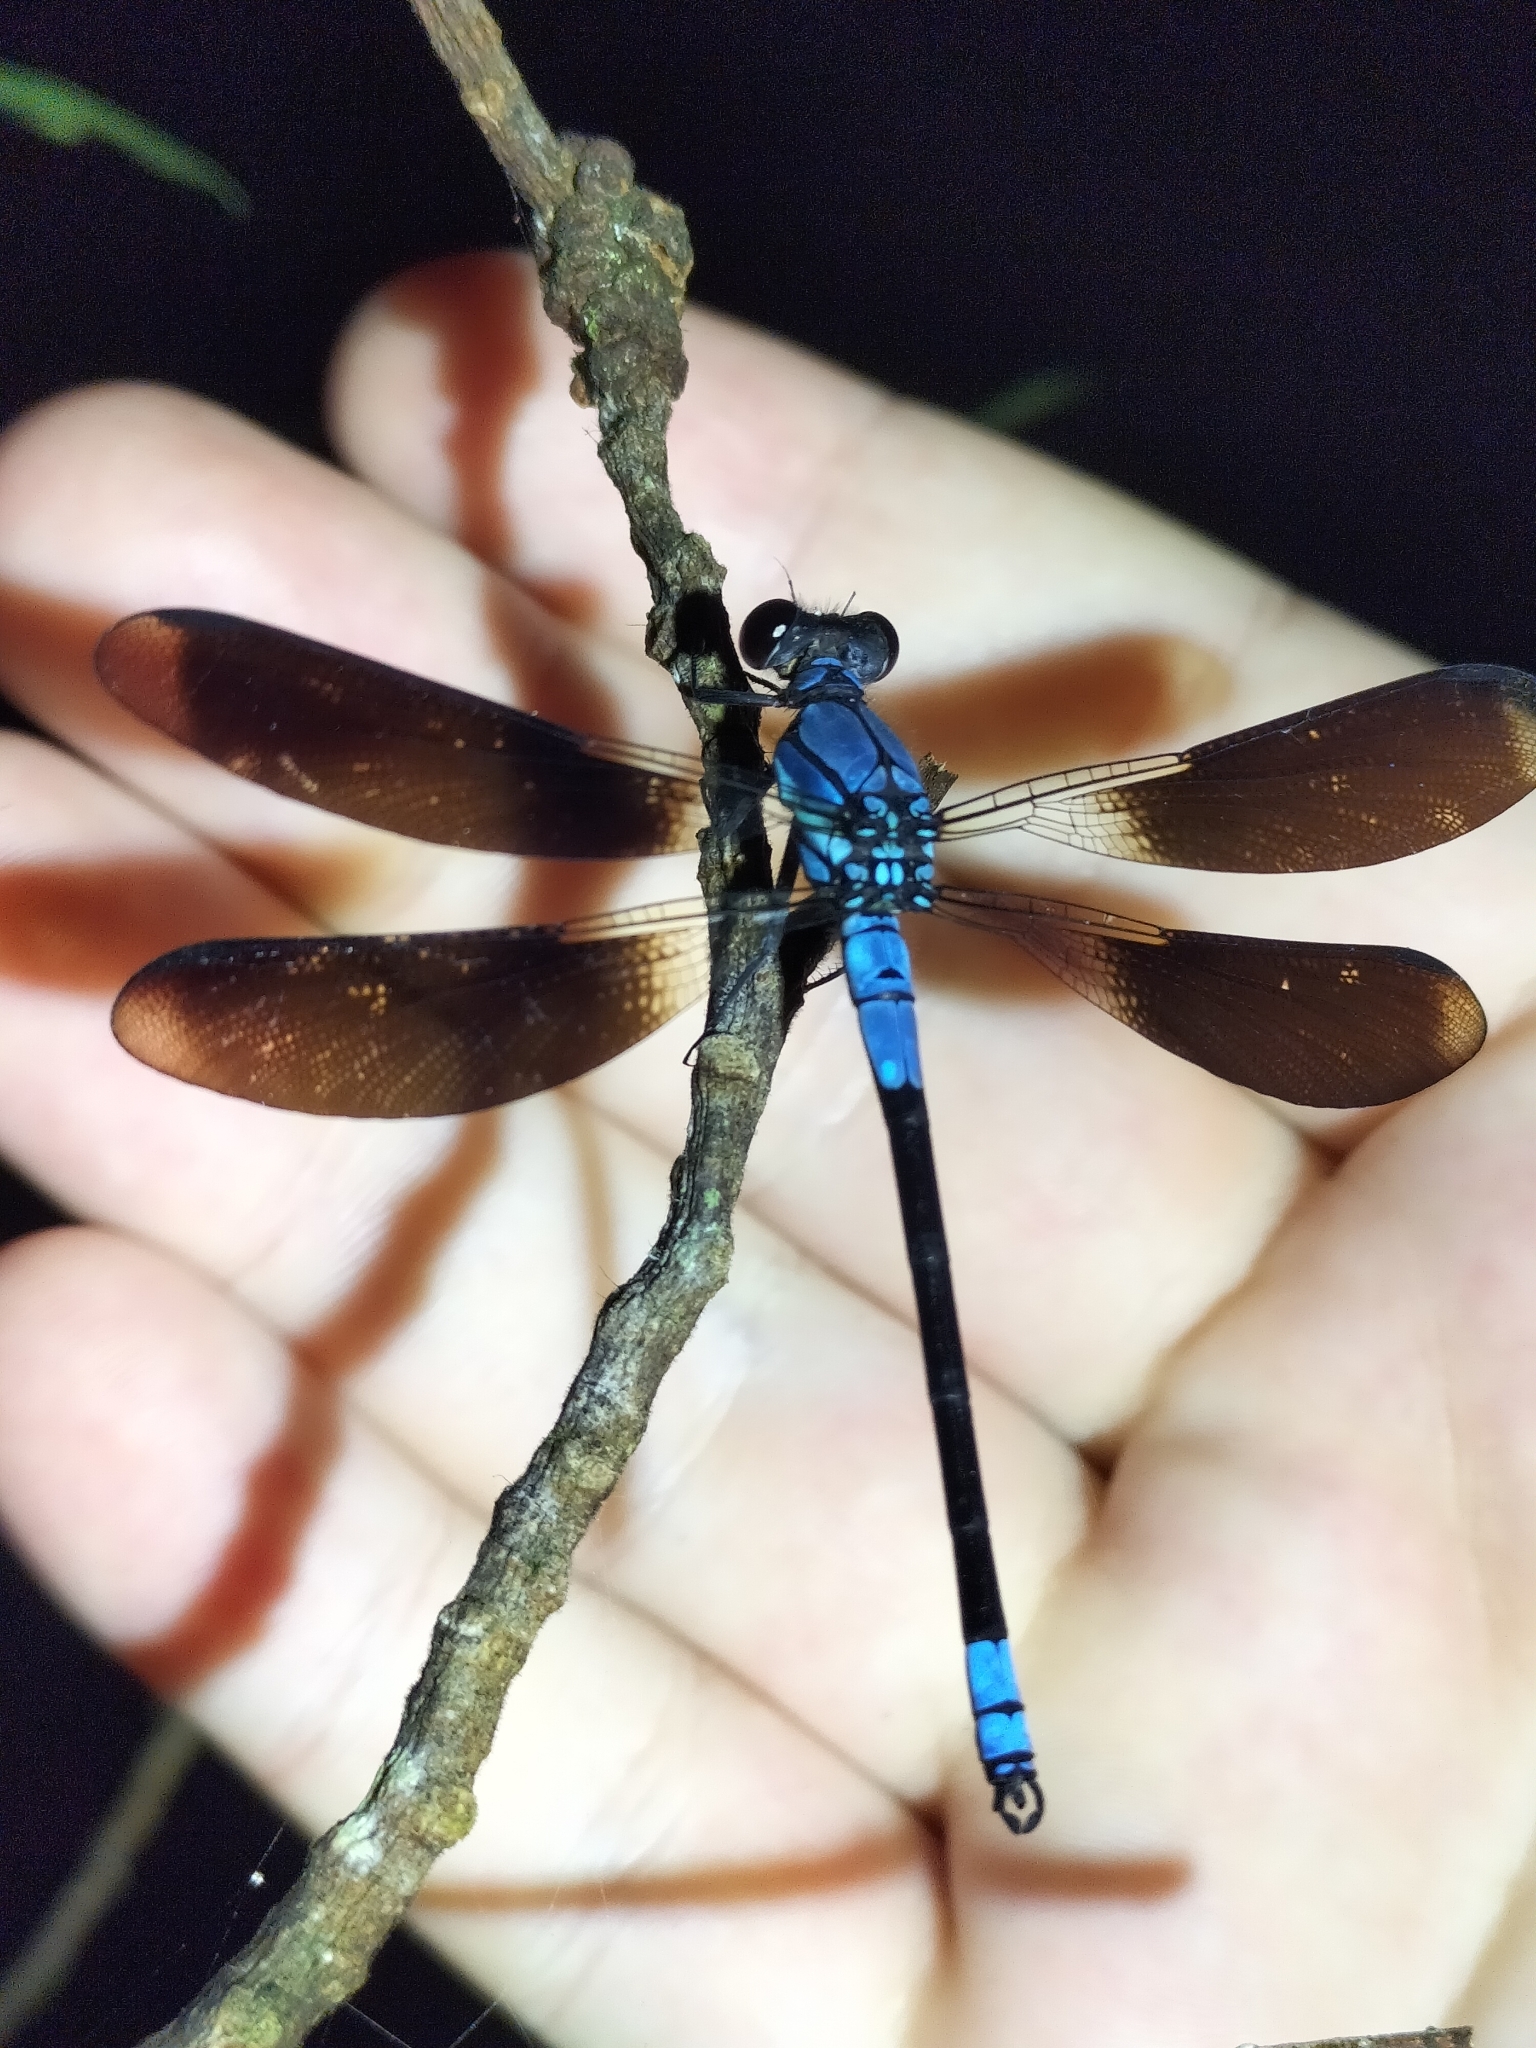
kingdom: Animalia
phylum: Arthropoda
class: Insecta
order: Odonata
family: Lestoideidae
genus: Diphlebia
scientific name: Diphlebia euphoeoides
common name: Tropical rockmaster
